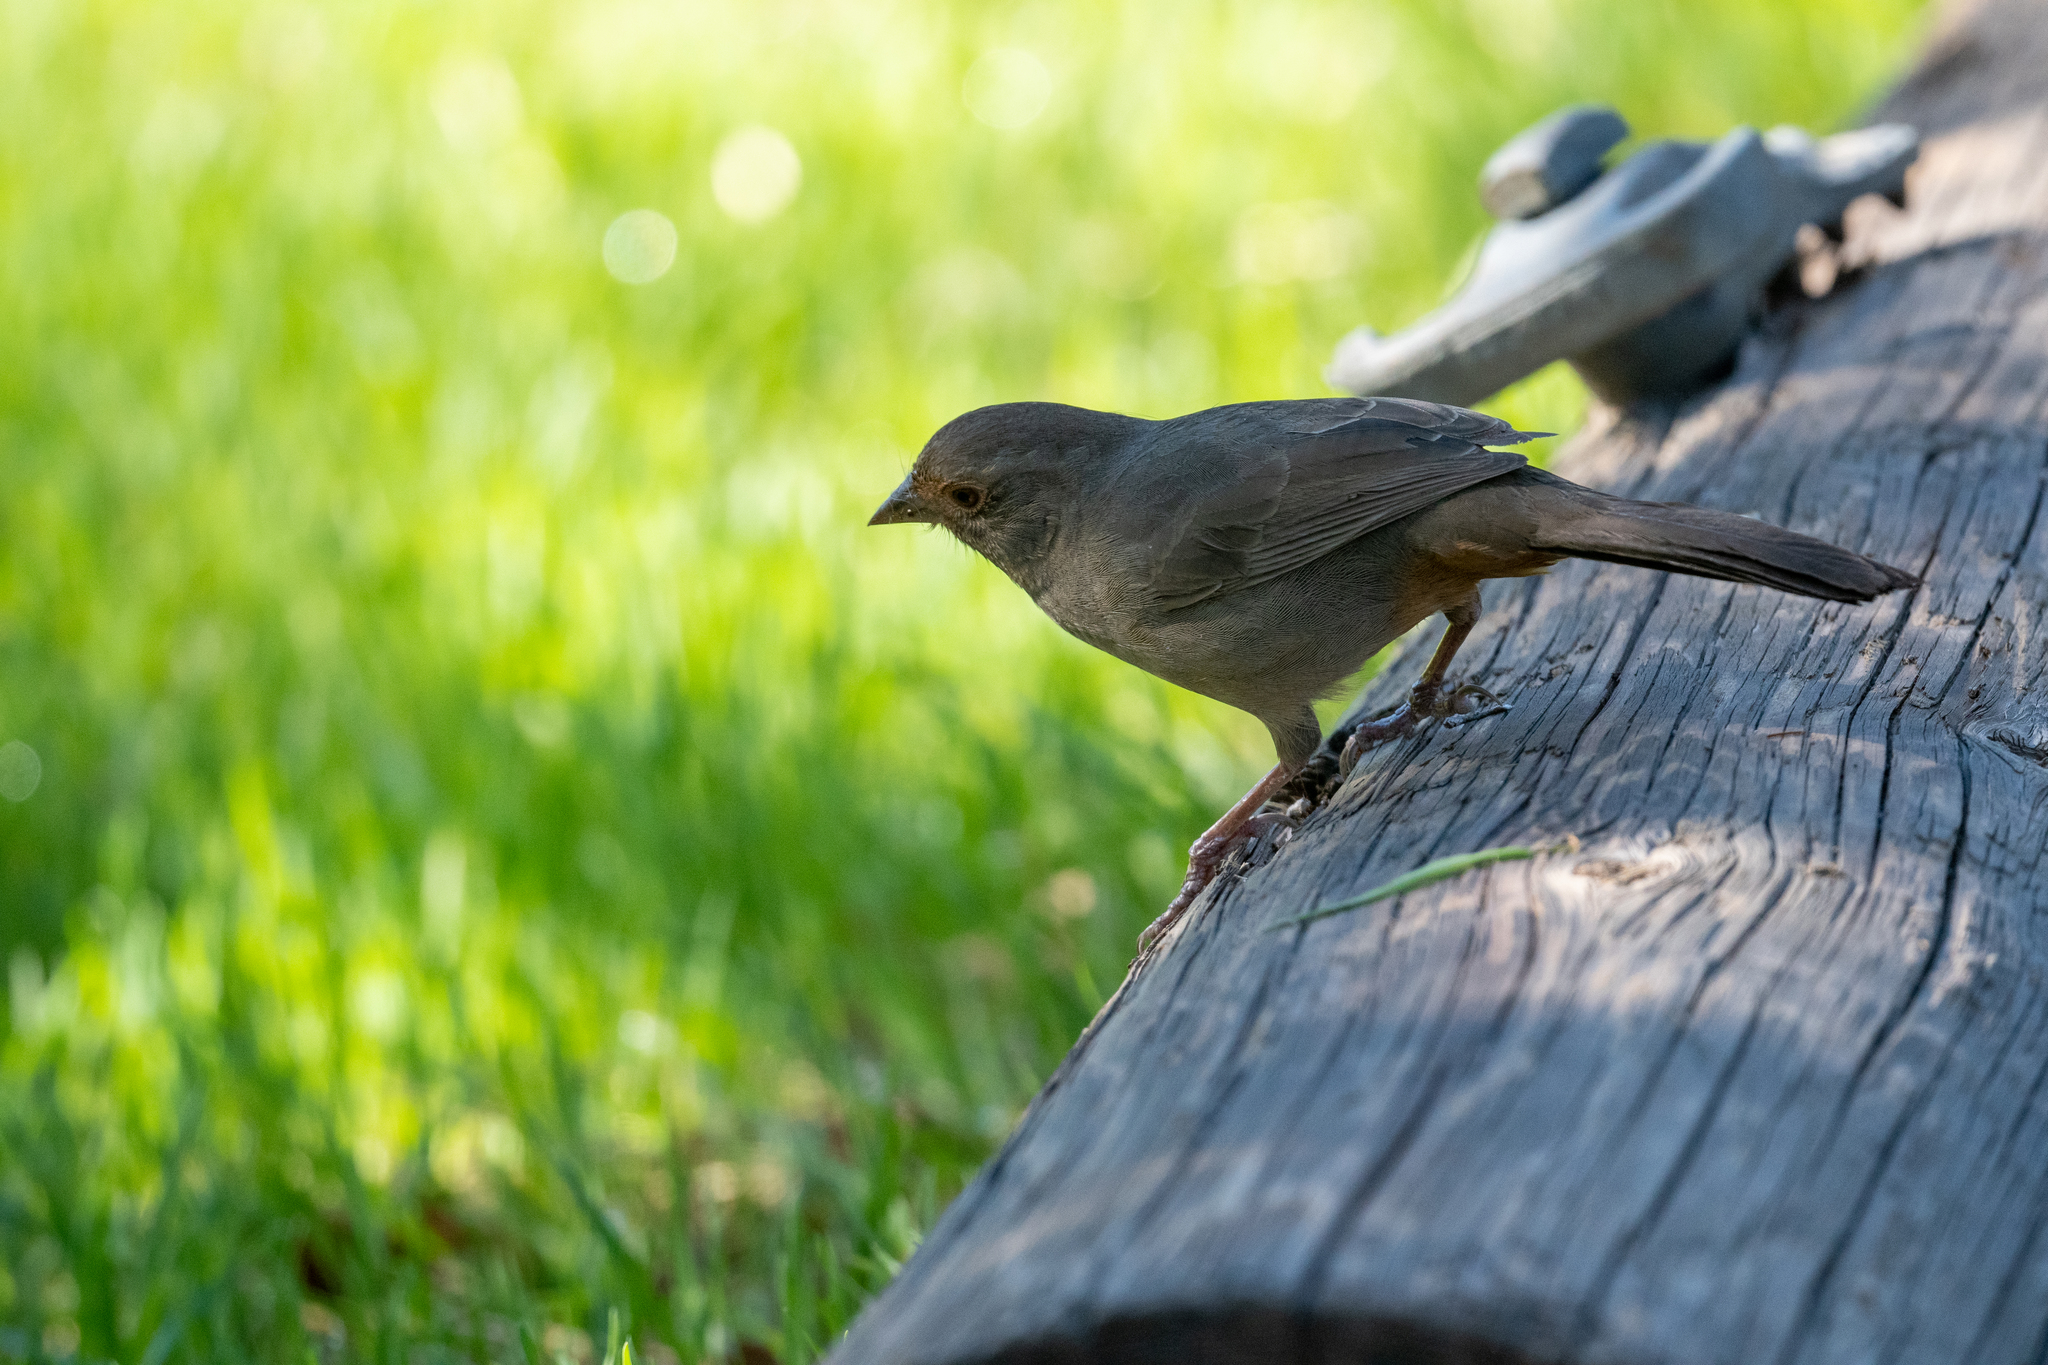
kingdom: Animalia
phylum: Chordata
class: Aves
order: Passeriformes
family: Passerellidae
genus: Melozone
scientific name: Melozone crissalis
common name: California towhee
